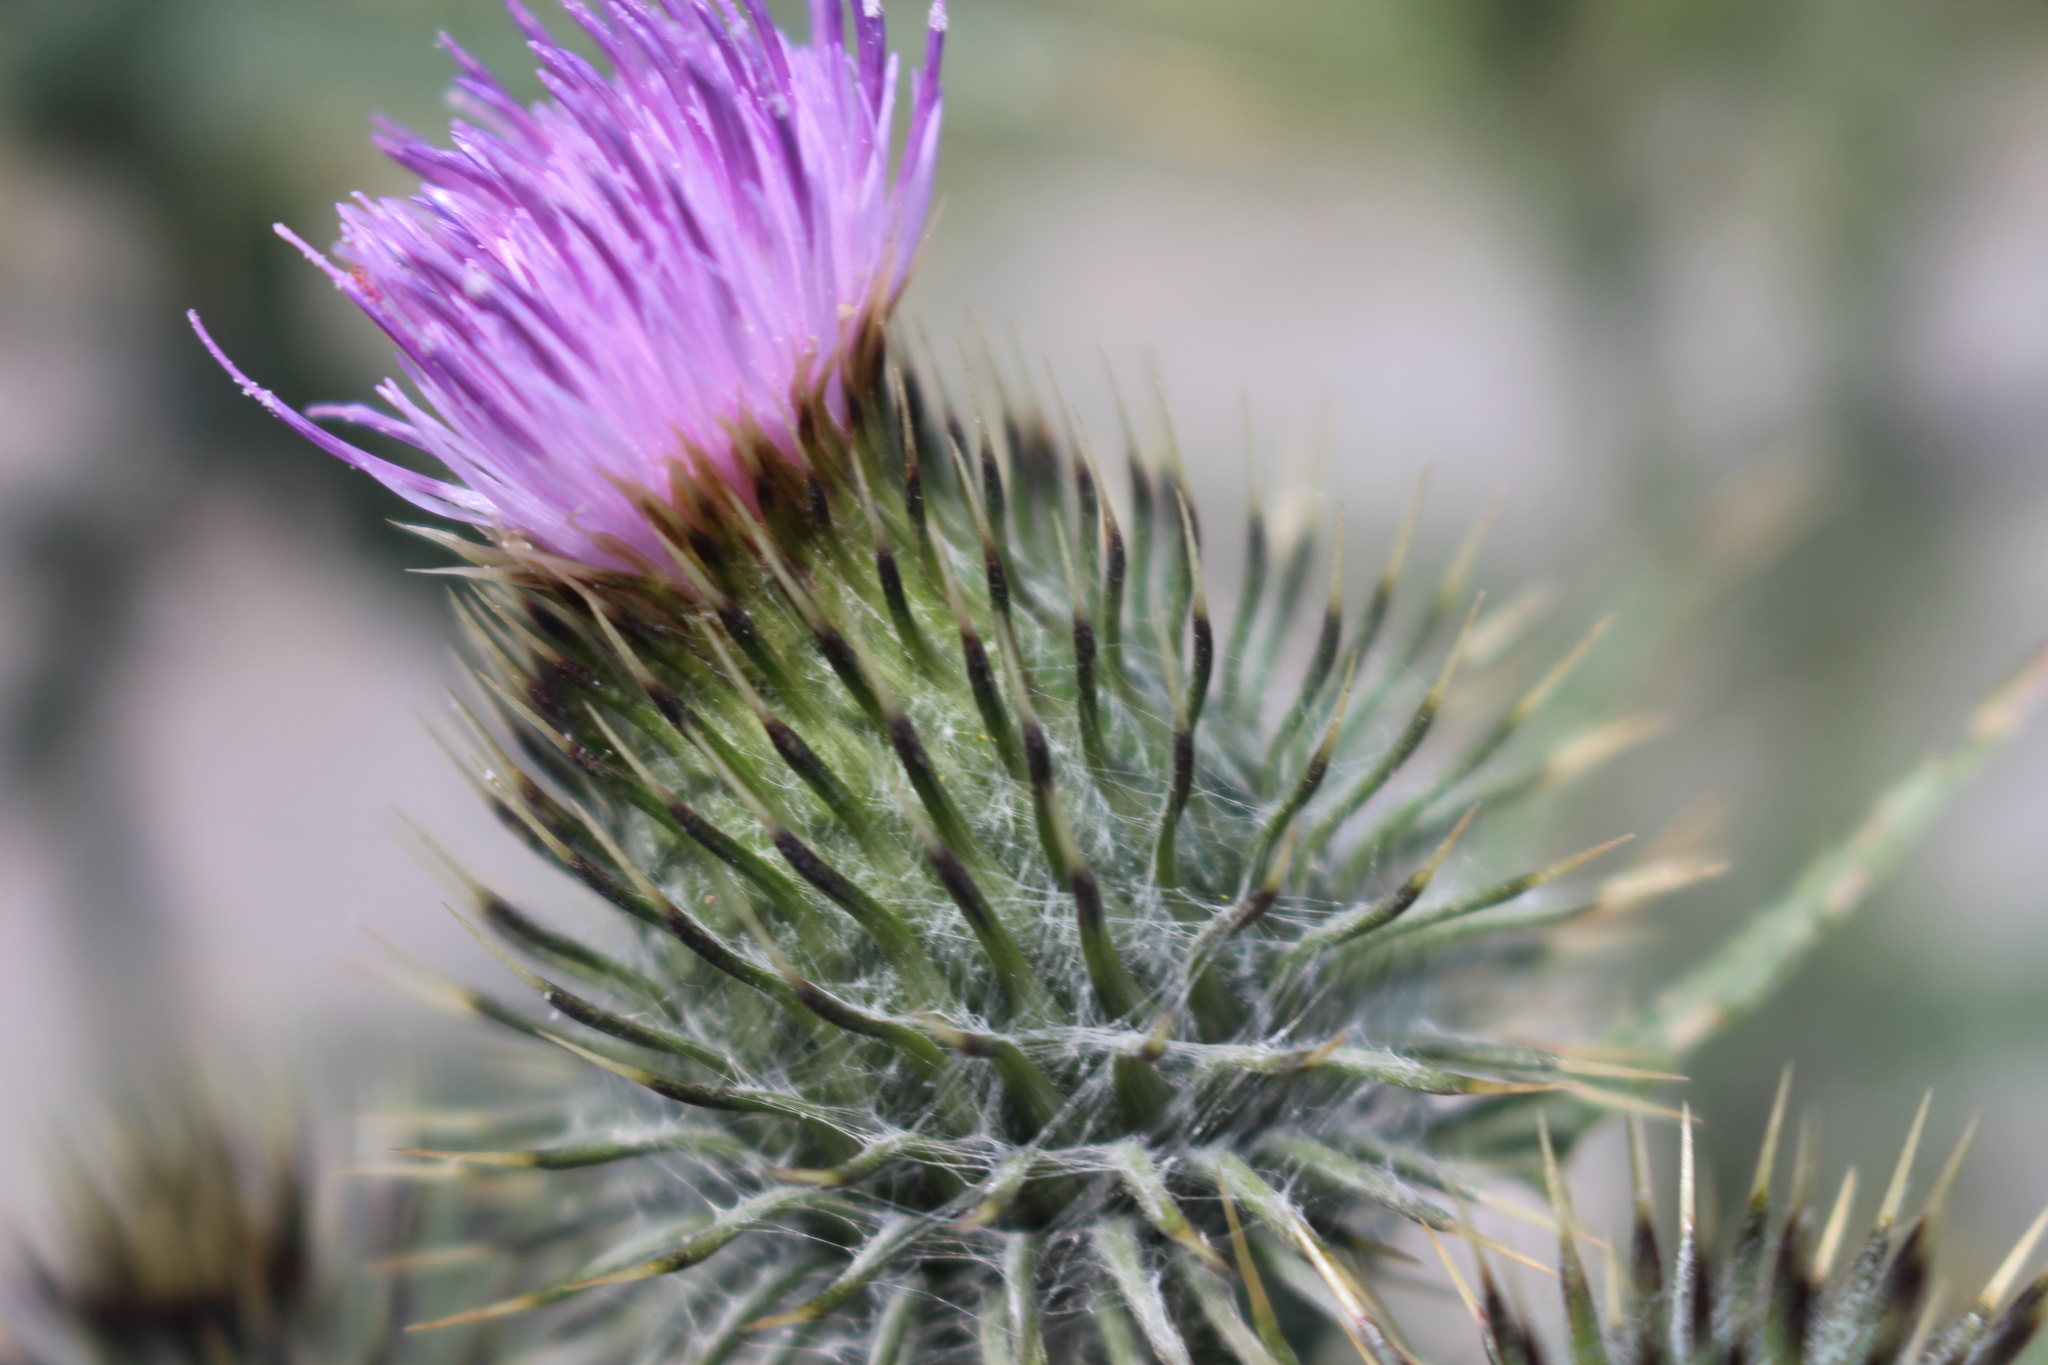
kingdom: Plantae
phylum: Tracheophyta
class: Magnoliopsida
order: Asterales
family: Asteraceae
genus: Cirsium
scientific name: Cirsium vulgare
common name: Bull thistle
